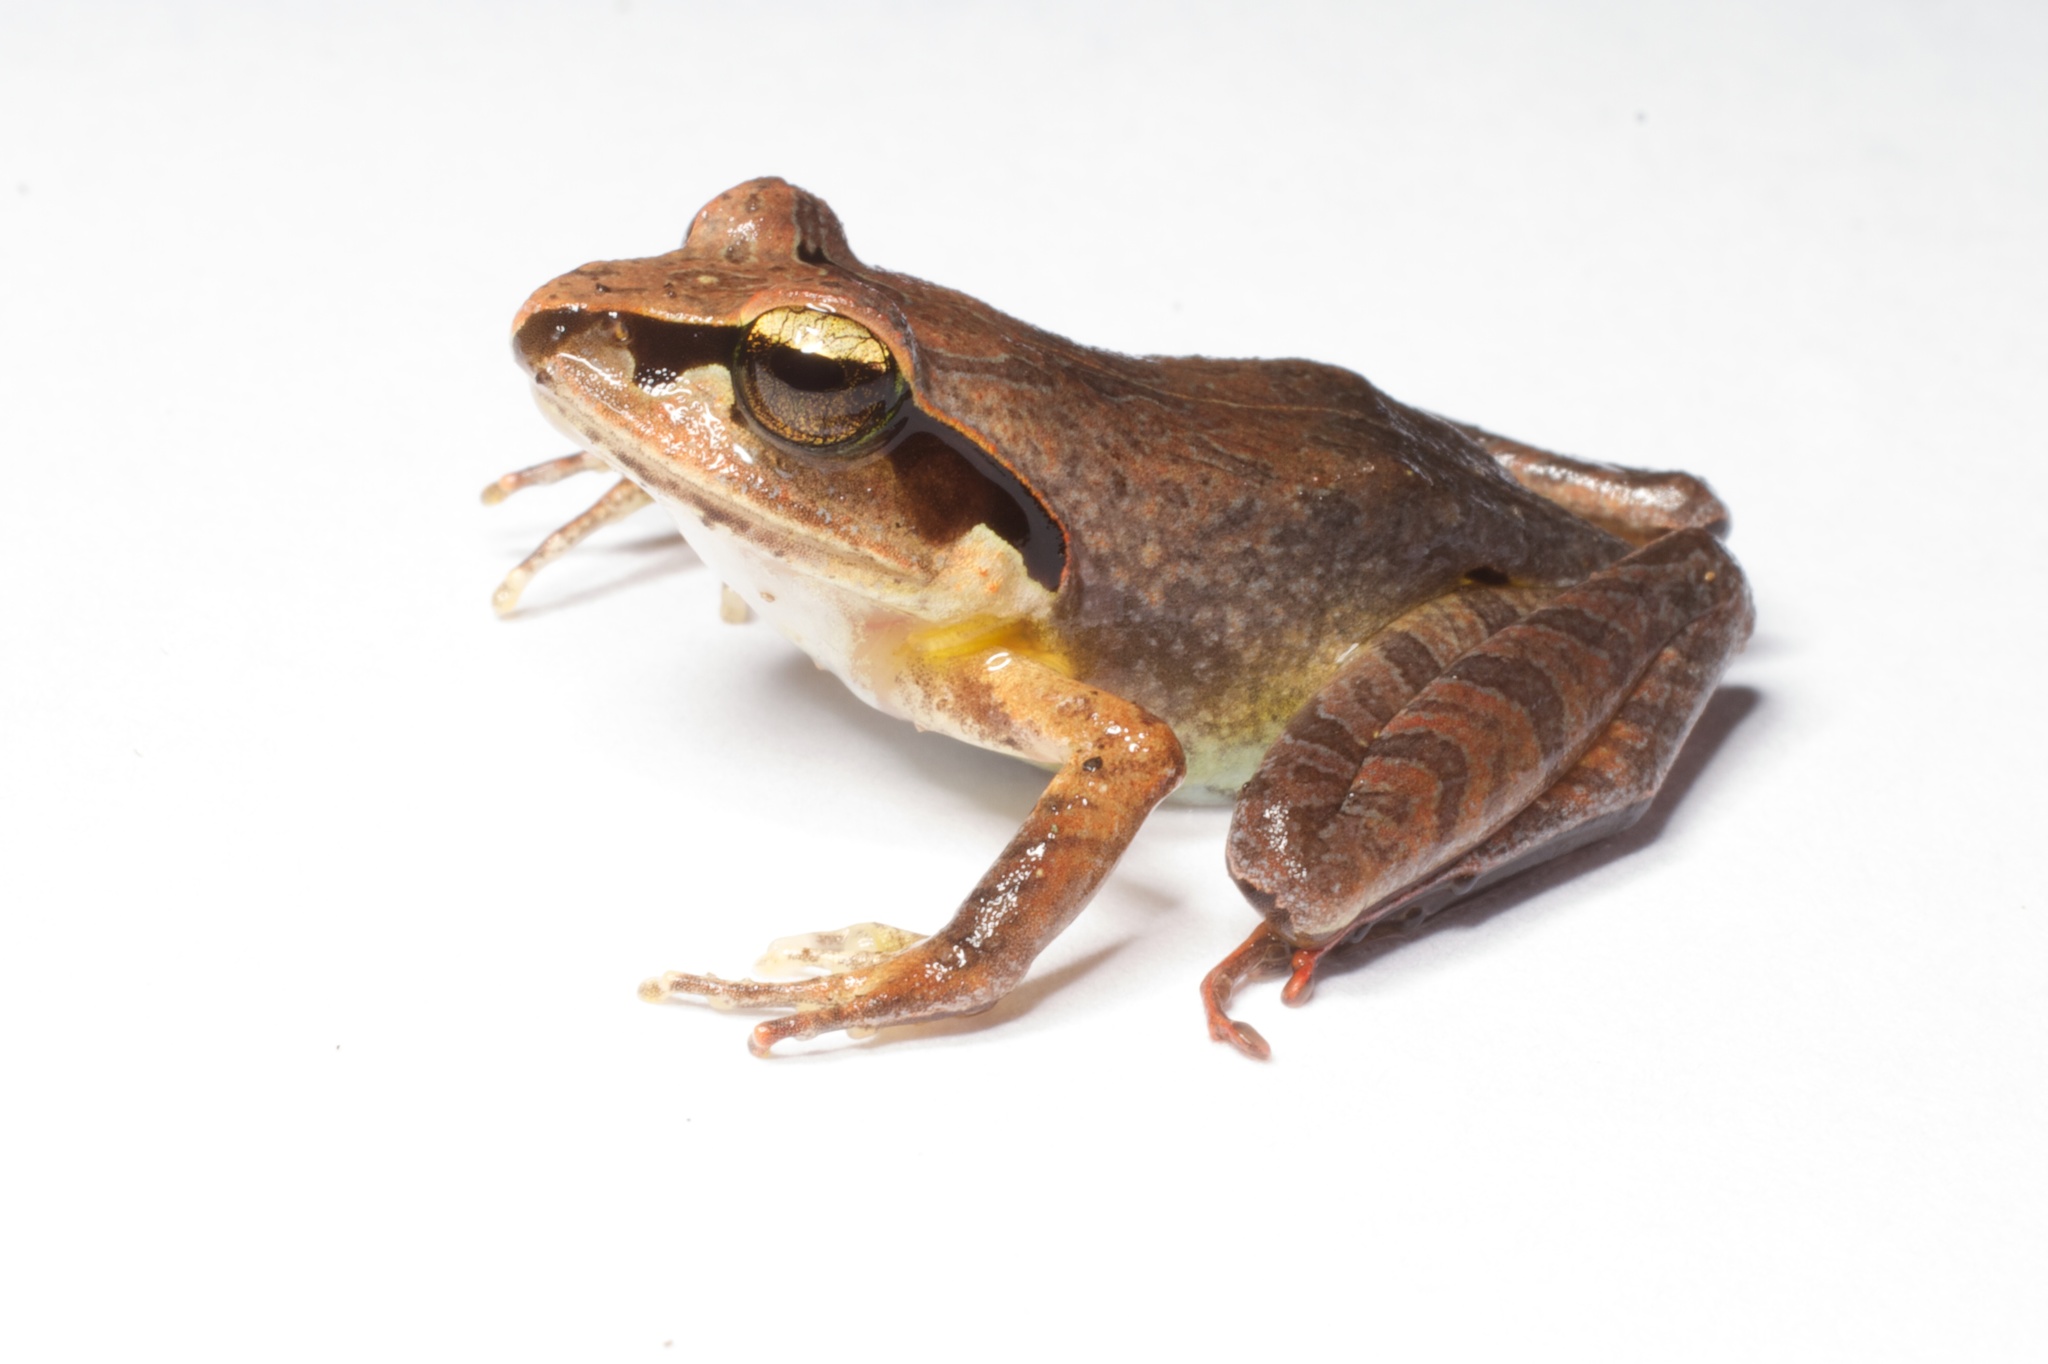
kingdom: Animalia
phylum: Chordata
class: Amphibia
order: Anura
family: Mantellidae
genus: Aglyptodactylus
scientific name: Aglyptodactylus madagascariensis
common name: Madagascar jumping frog
